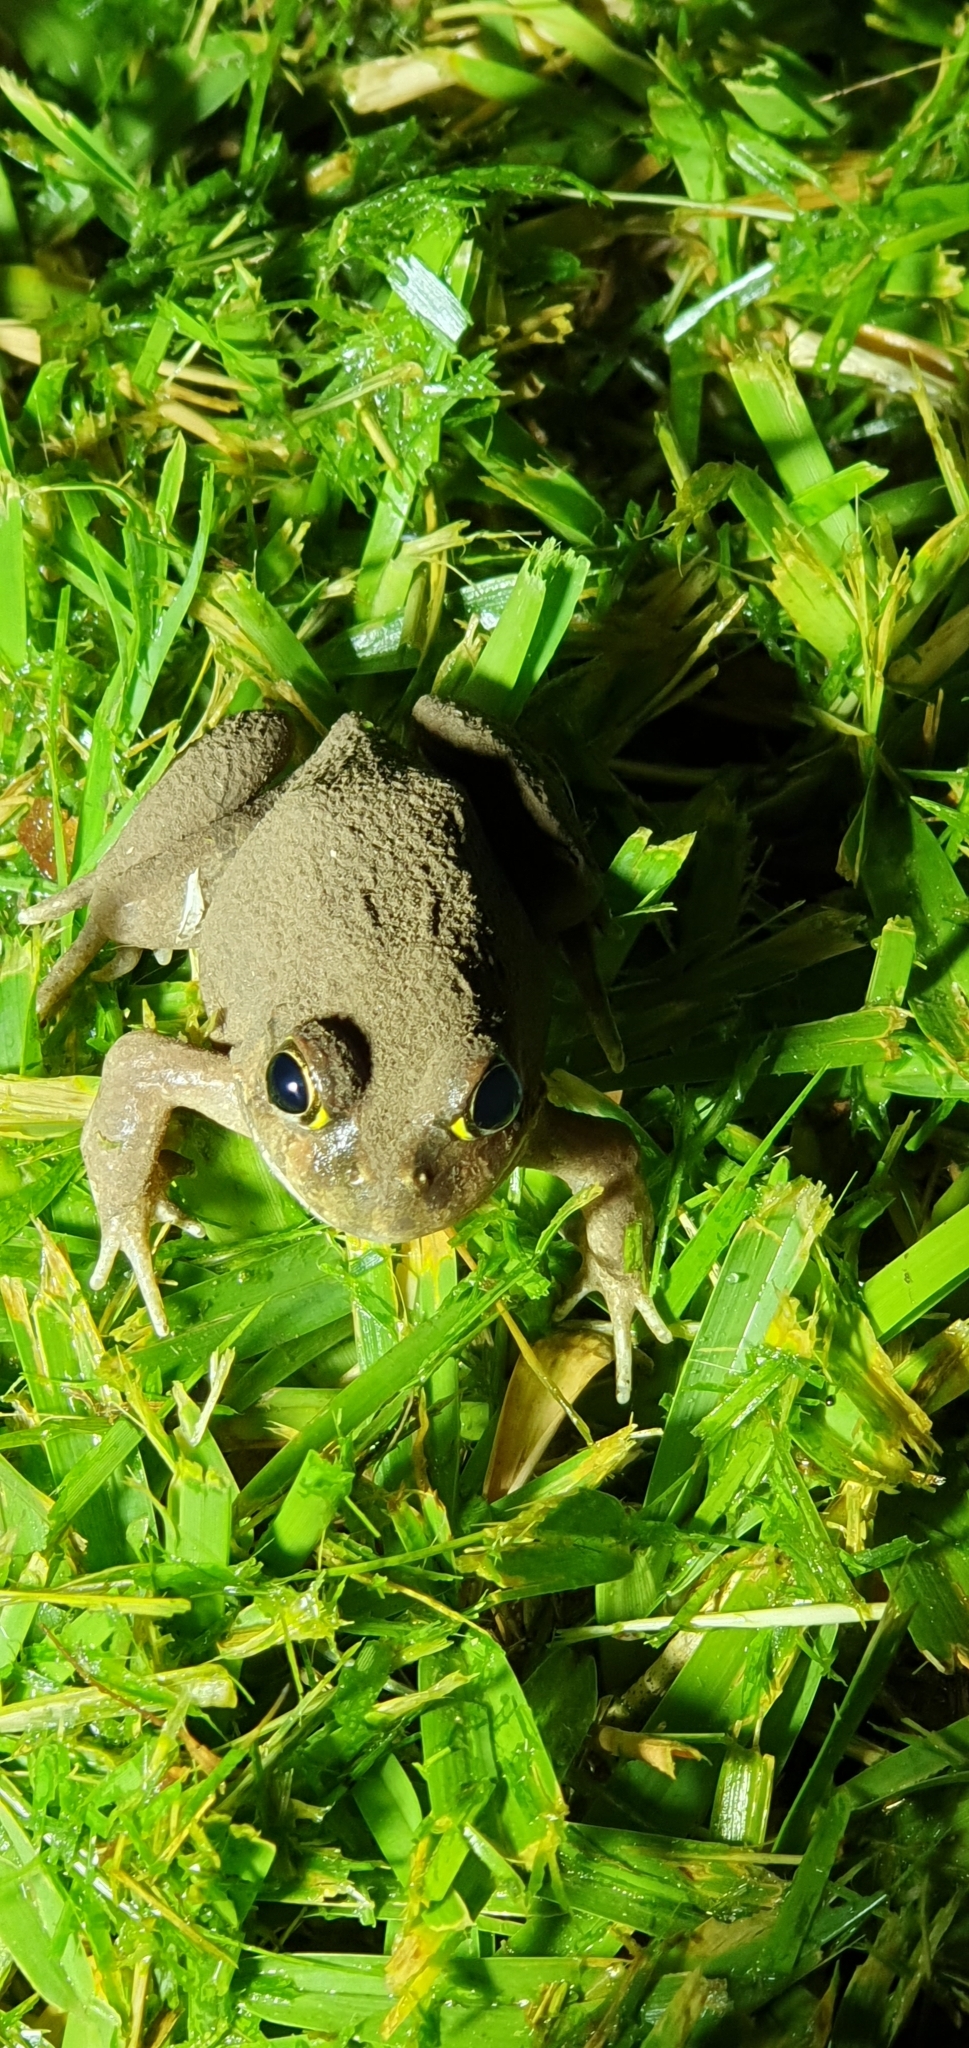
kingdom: Animalia
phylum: Chordata
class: Amphibia
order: Anura
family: Limnodynastidae
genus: Platyplectrum
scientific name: Platyplectrum ornatum
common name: Ornate burrowing frog
